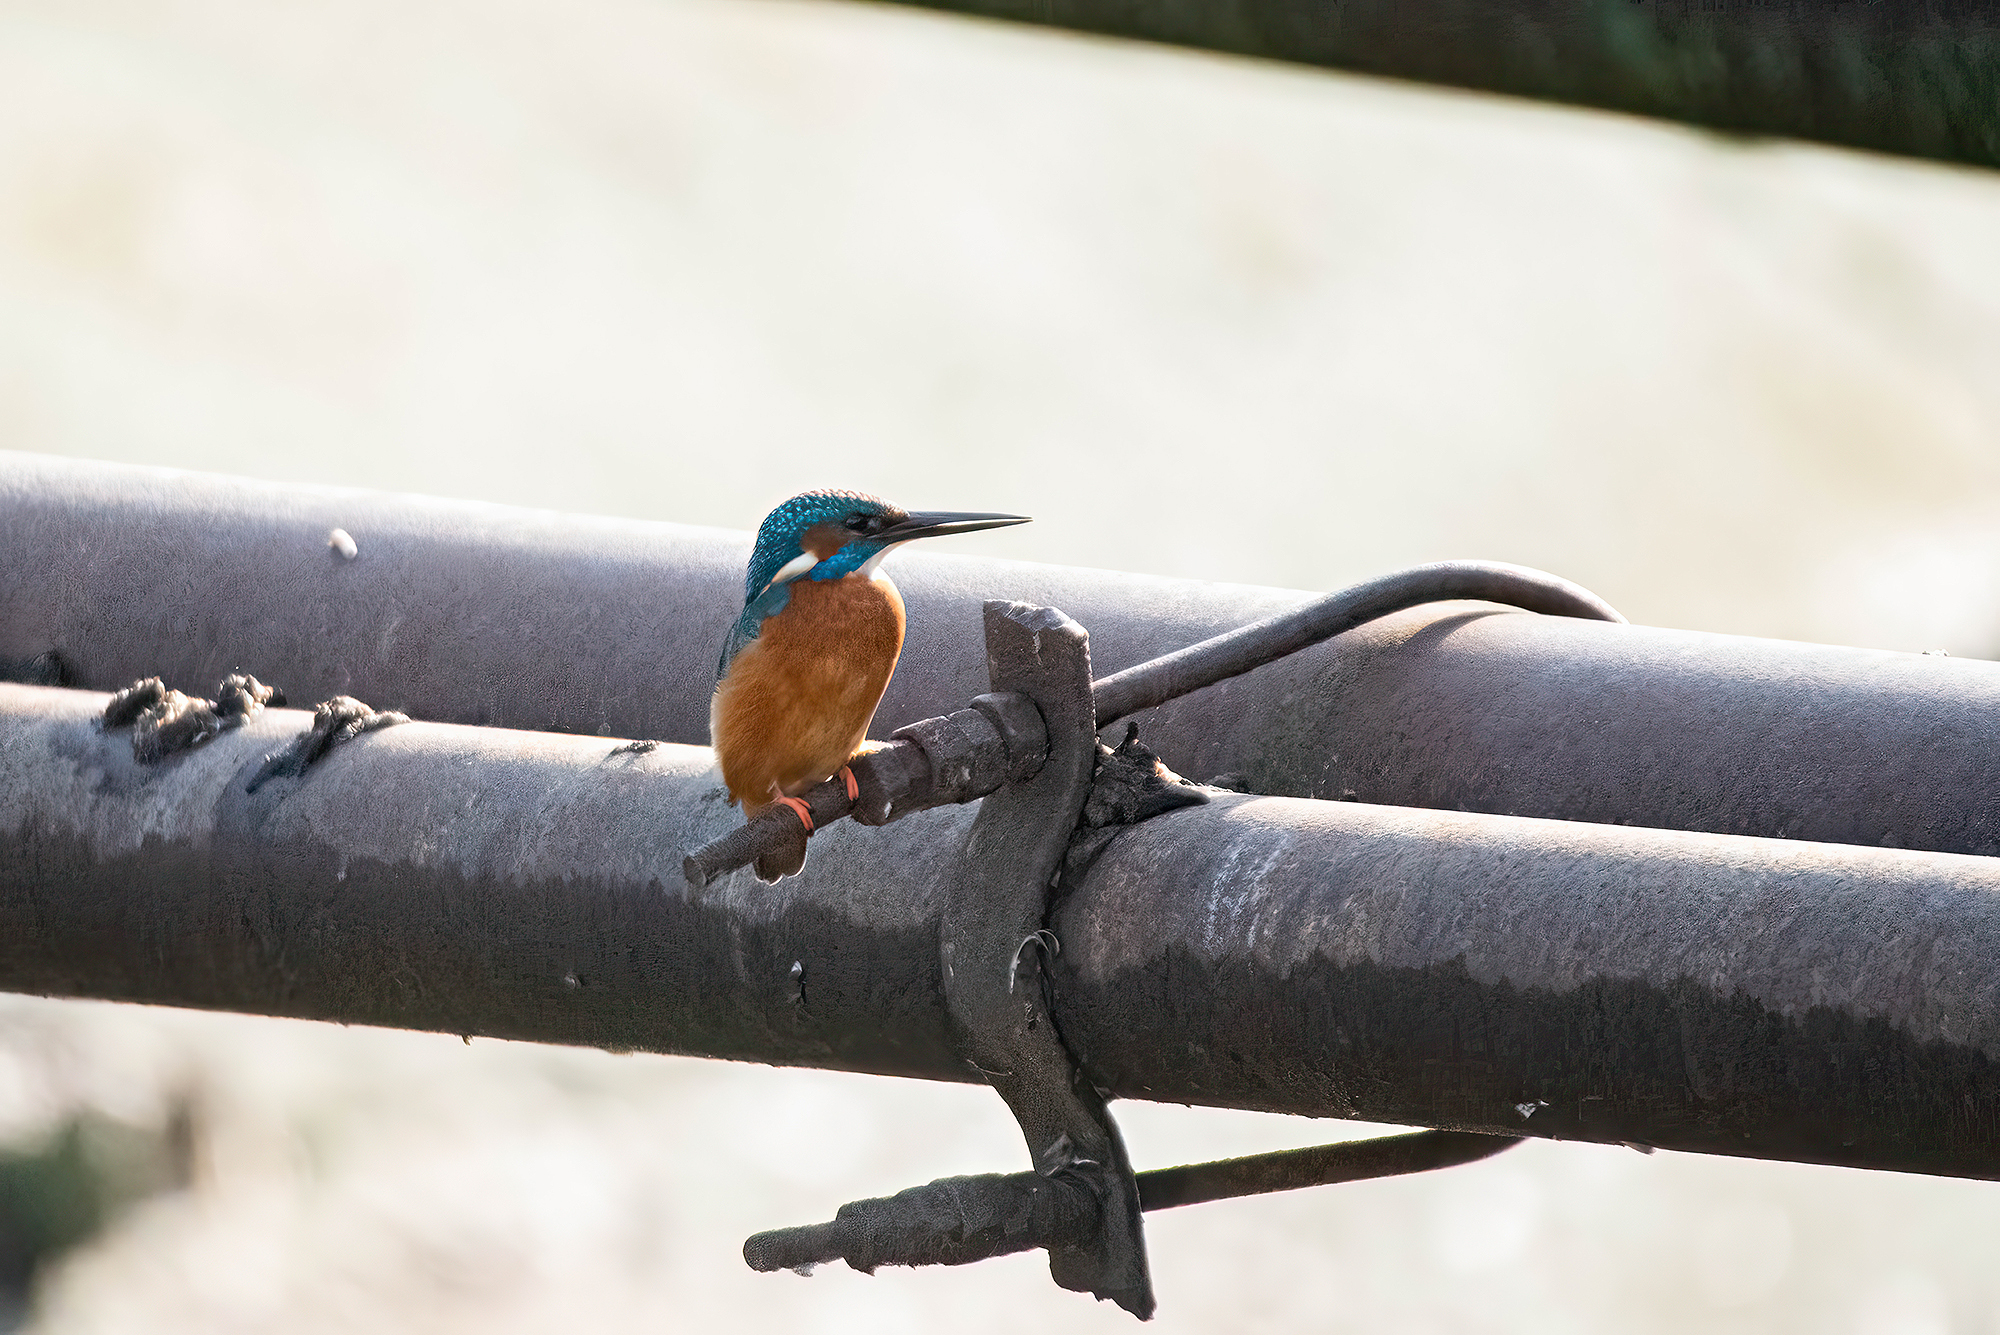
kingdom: Animalia
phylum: Chordata
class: Aves
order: Coraciiformes
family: Alcedinidae
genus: Alcedo
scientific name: Alcedo atthis
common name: Common kingfisher
